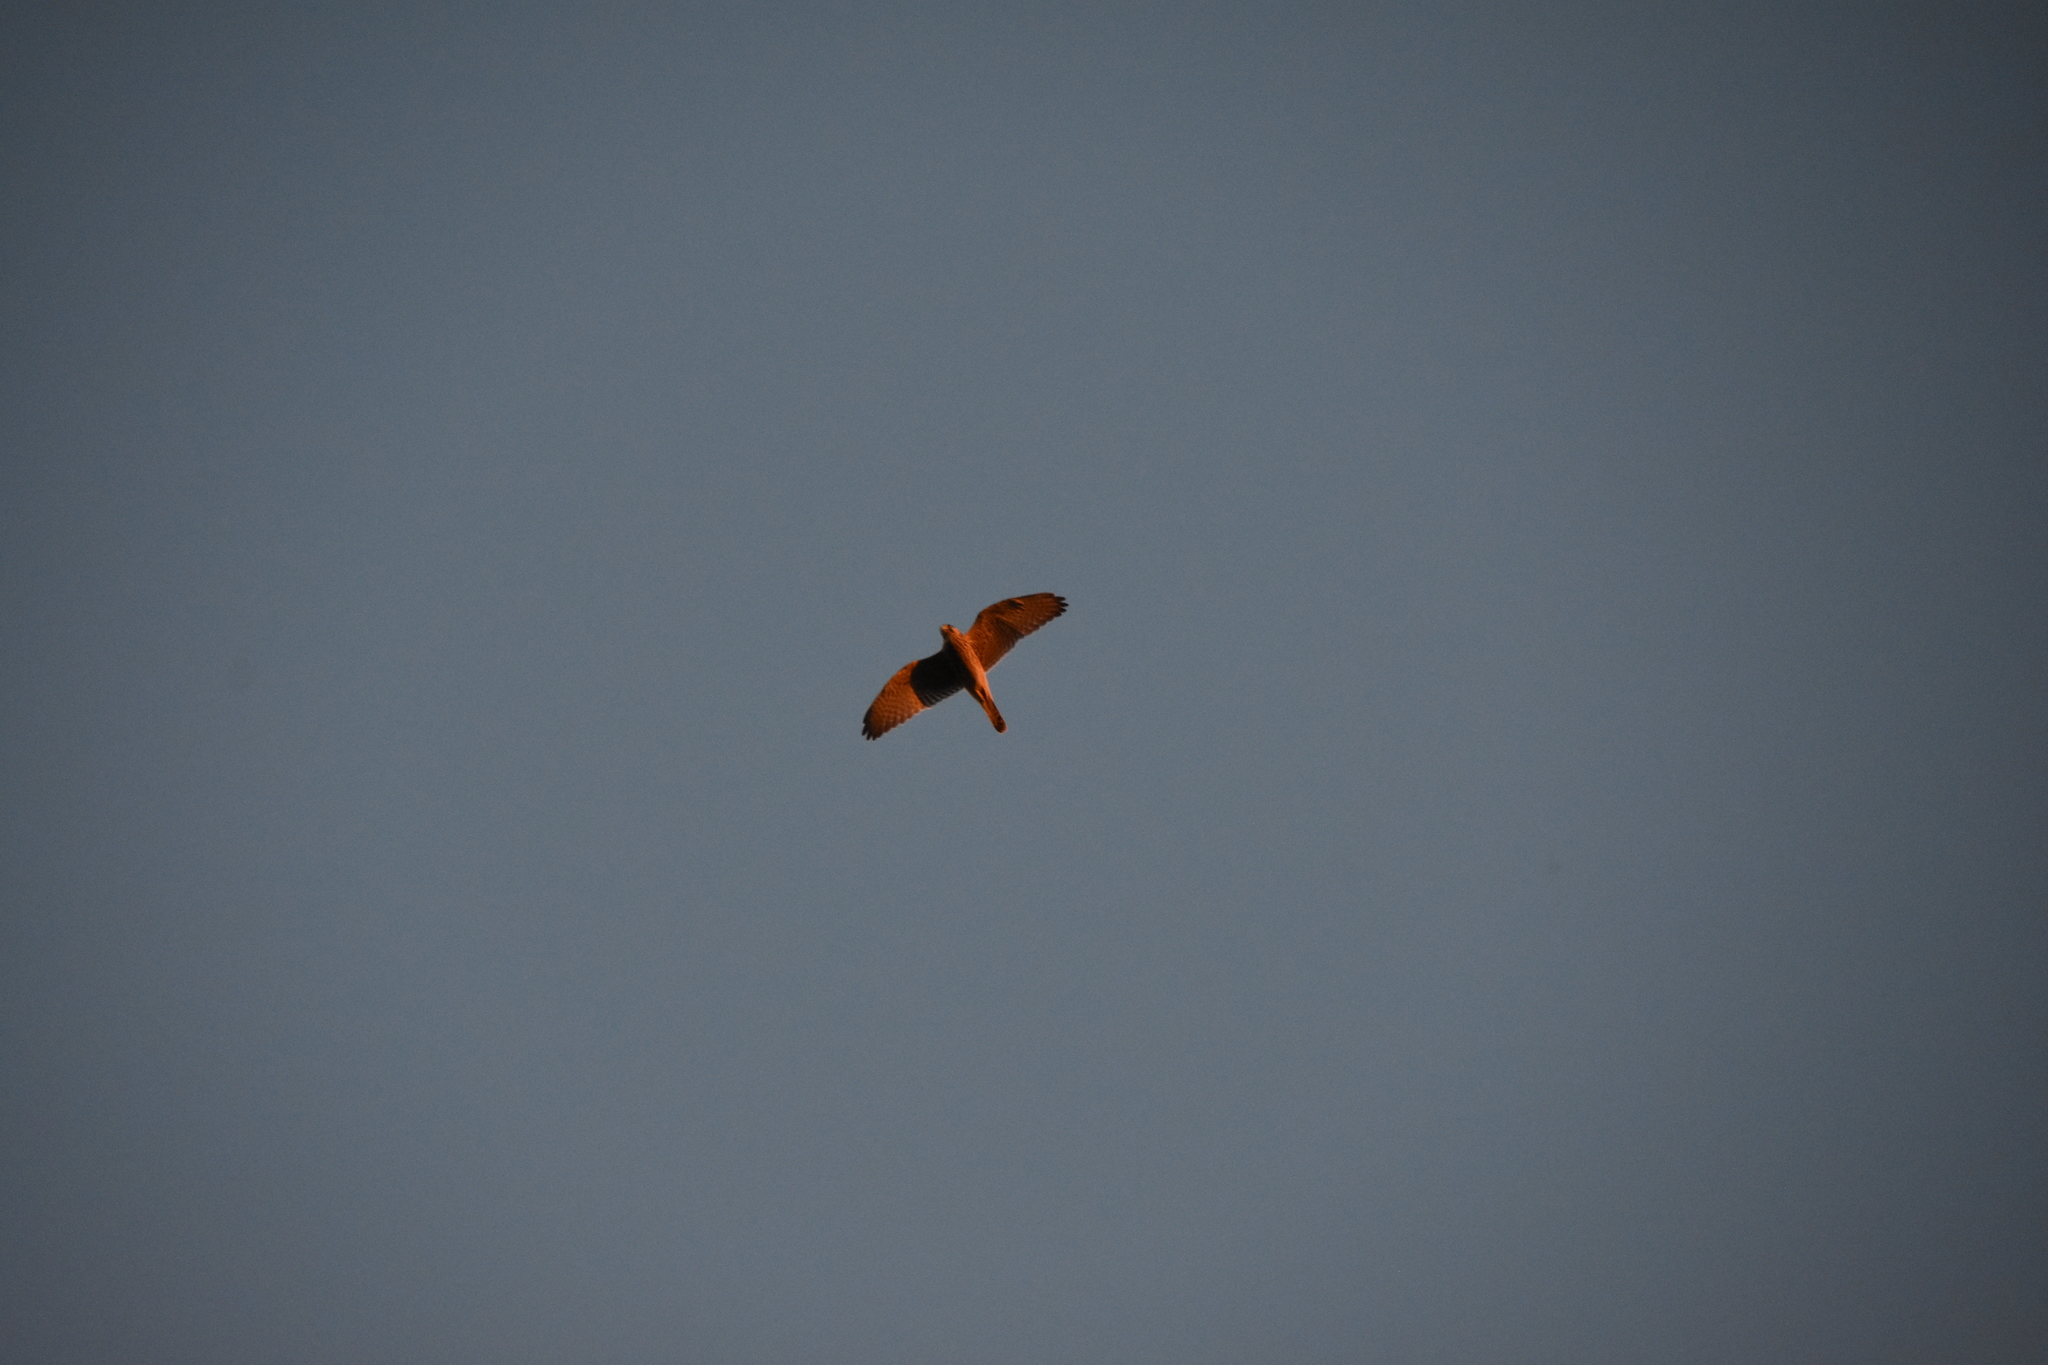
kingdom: Animalia
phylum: Chordata
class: Aves
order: Falconiformes
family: Falconidae
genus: Falco
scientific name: Falco tinnunculus
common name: Common kestrel
